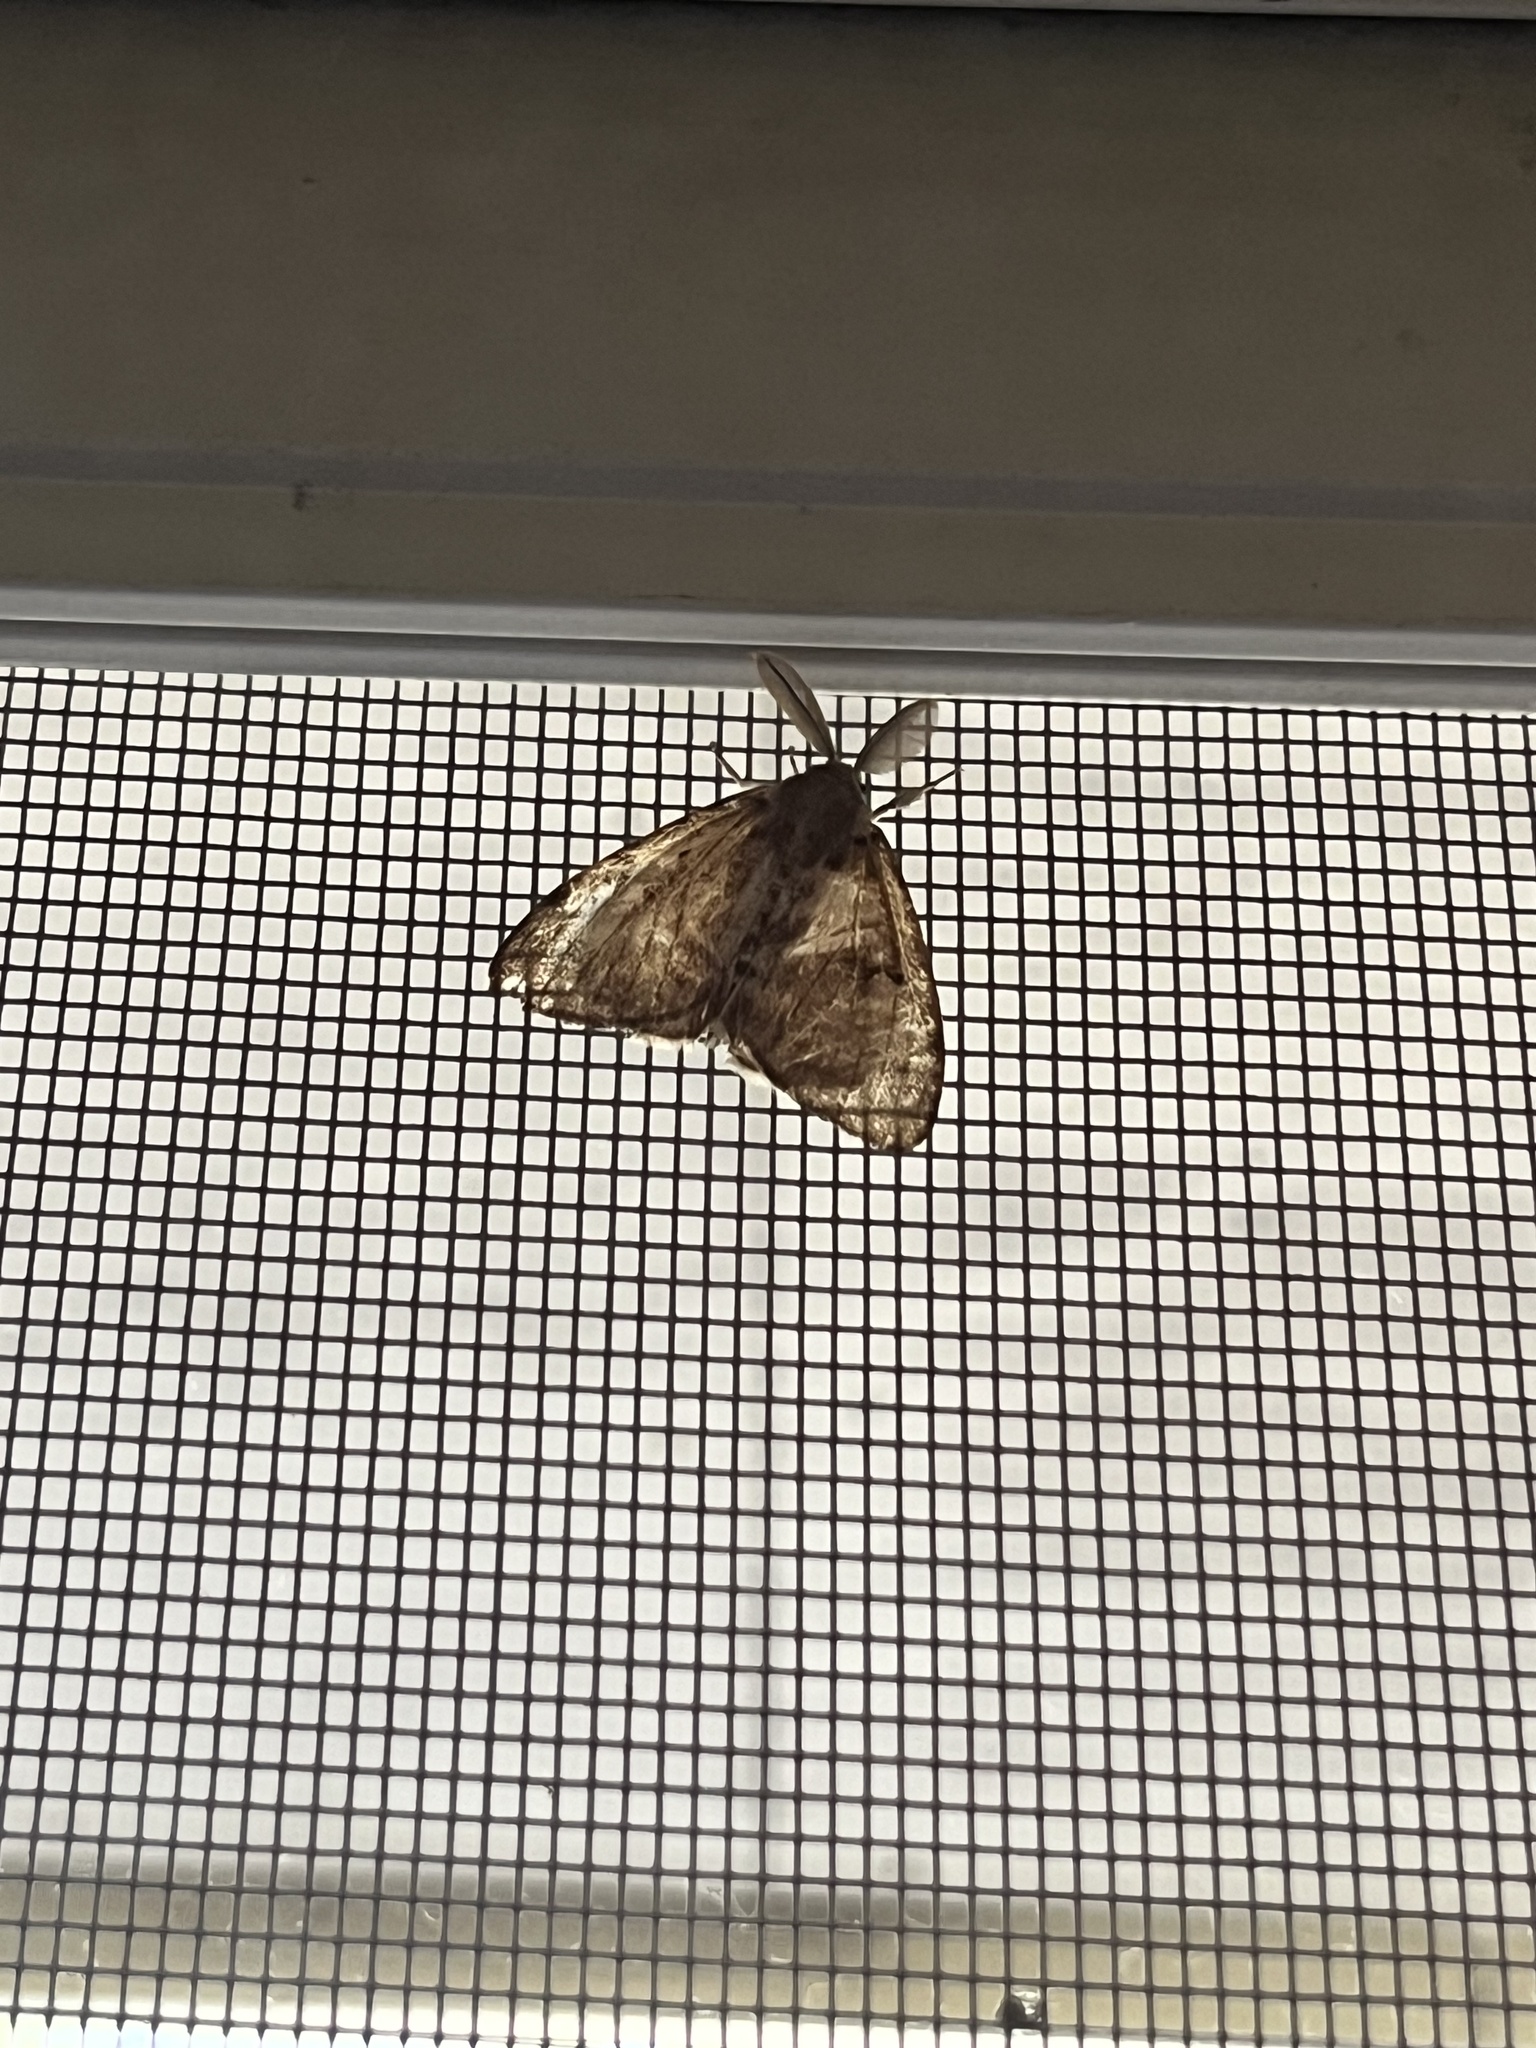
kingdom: Animalia
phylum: Arthropoda
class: Insecta
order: Lepidoptera
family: Erebidae
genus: Lymantria
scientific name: Lymantria dispar
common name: Gypsy moth
